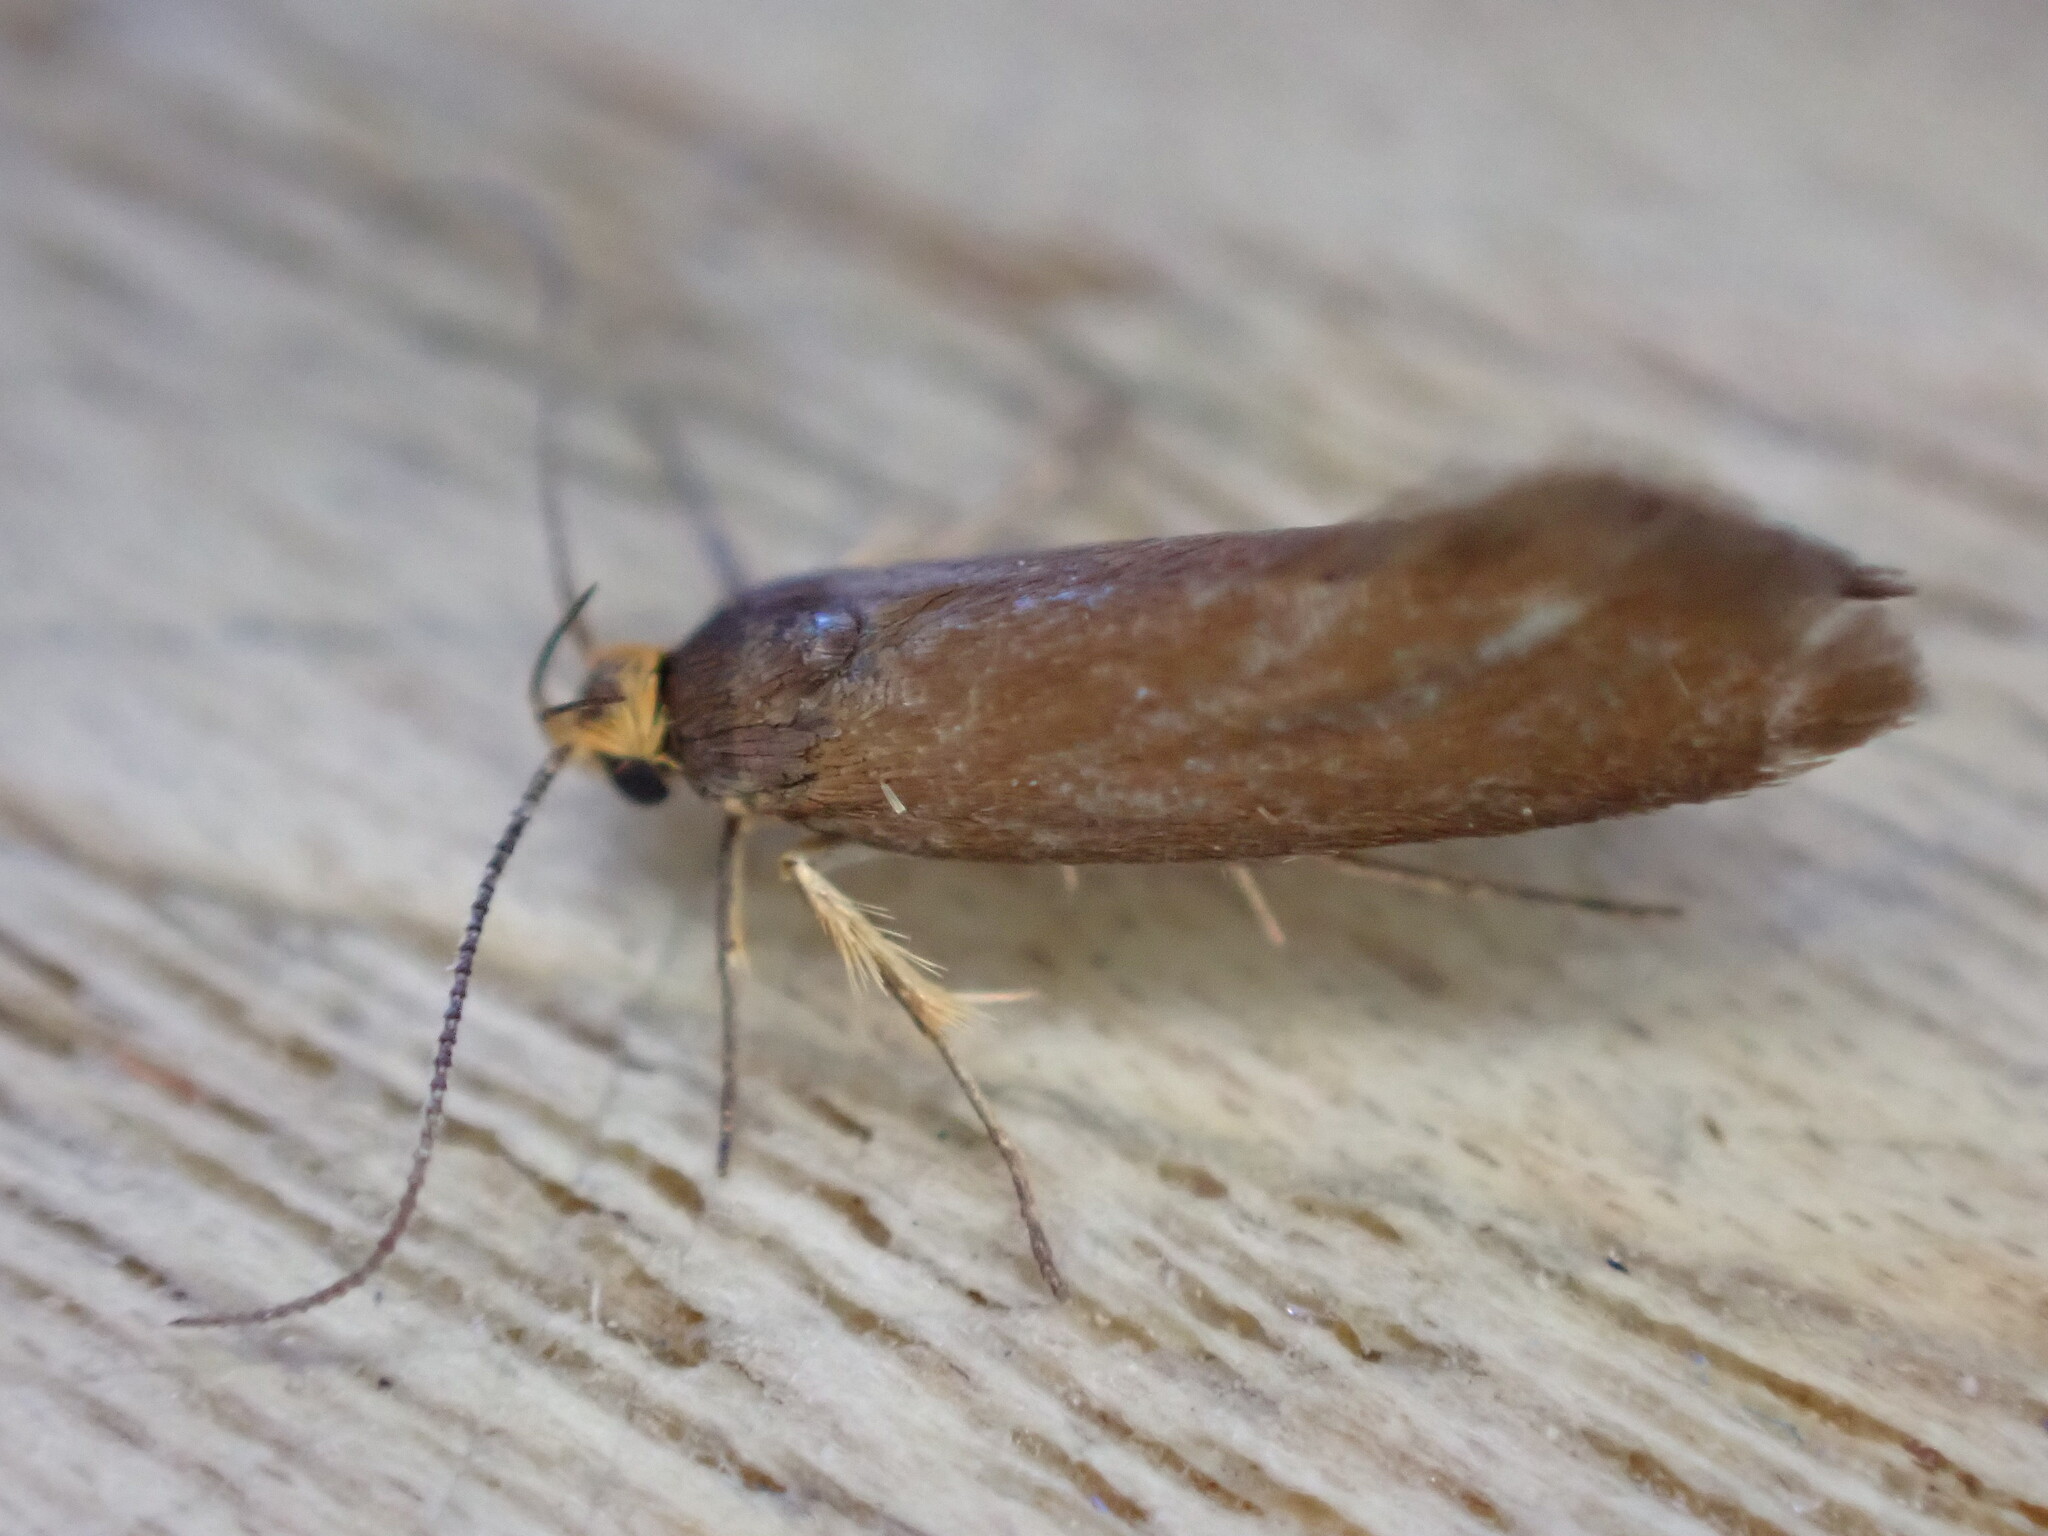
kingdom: Animalia
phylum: Arthropoda
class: Insecta
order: Lepidoptera
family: Oecophoridae
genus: Borkhausenia
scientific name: Borkhausenia Crassa unitella
